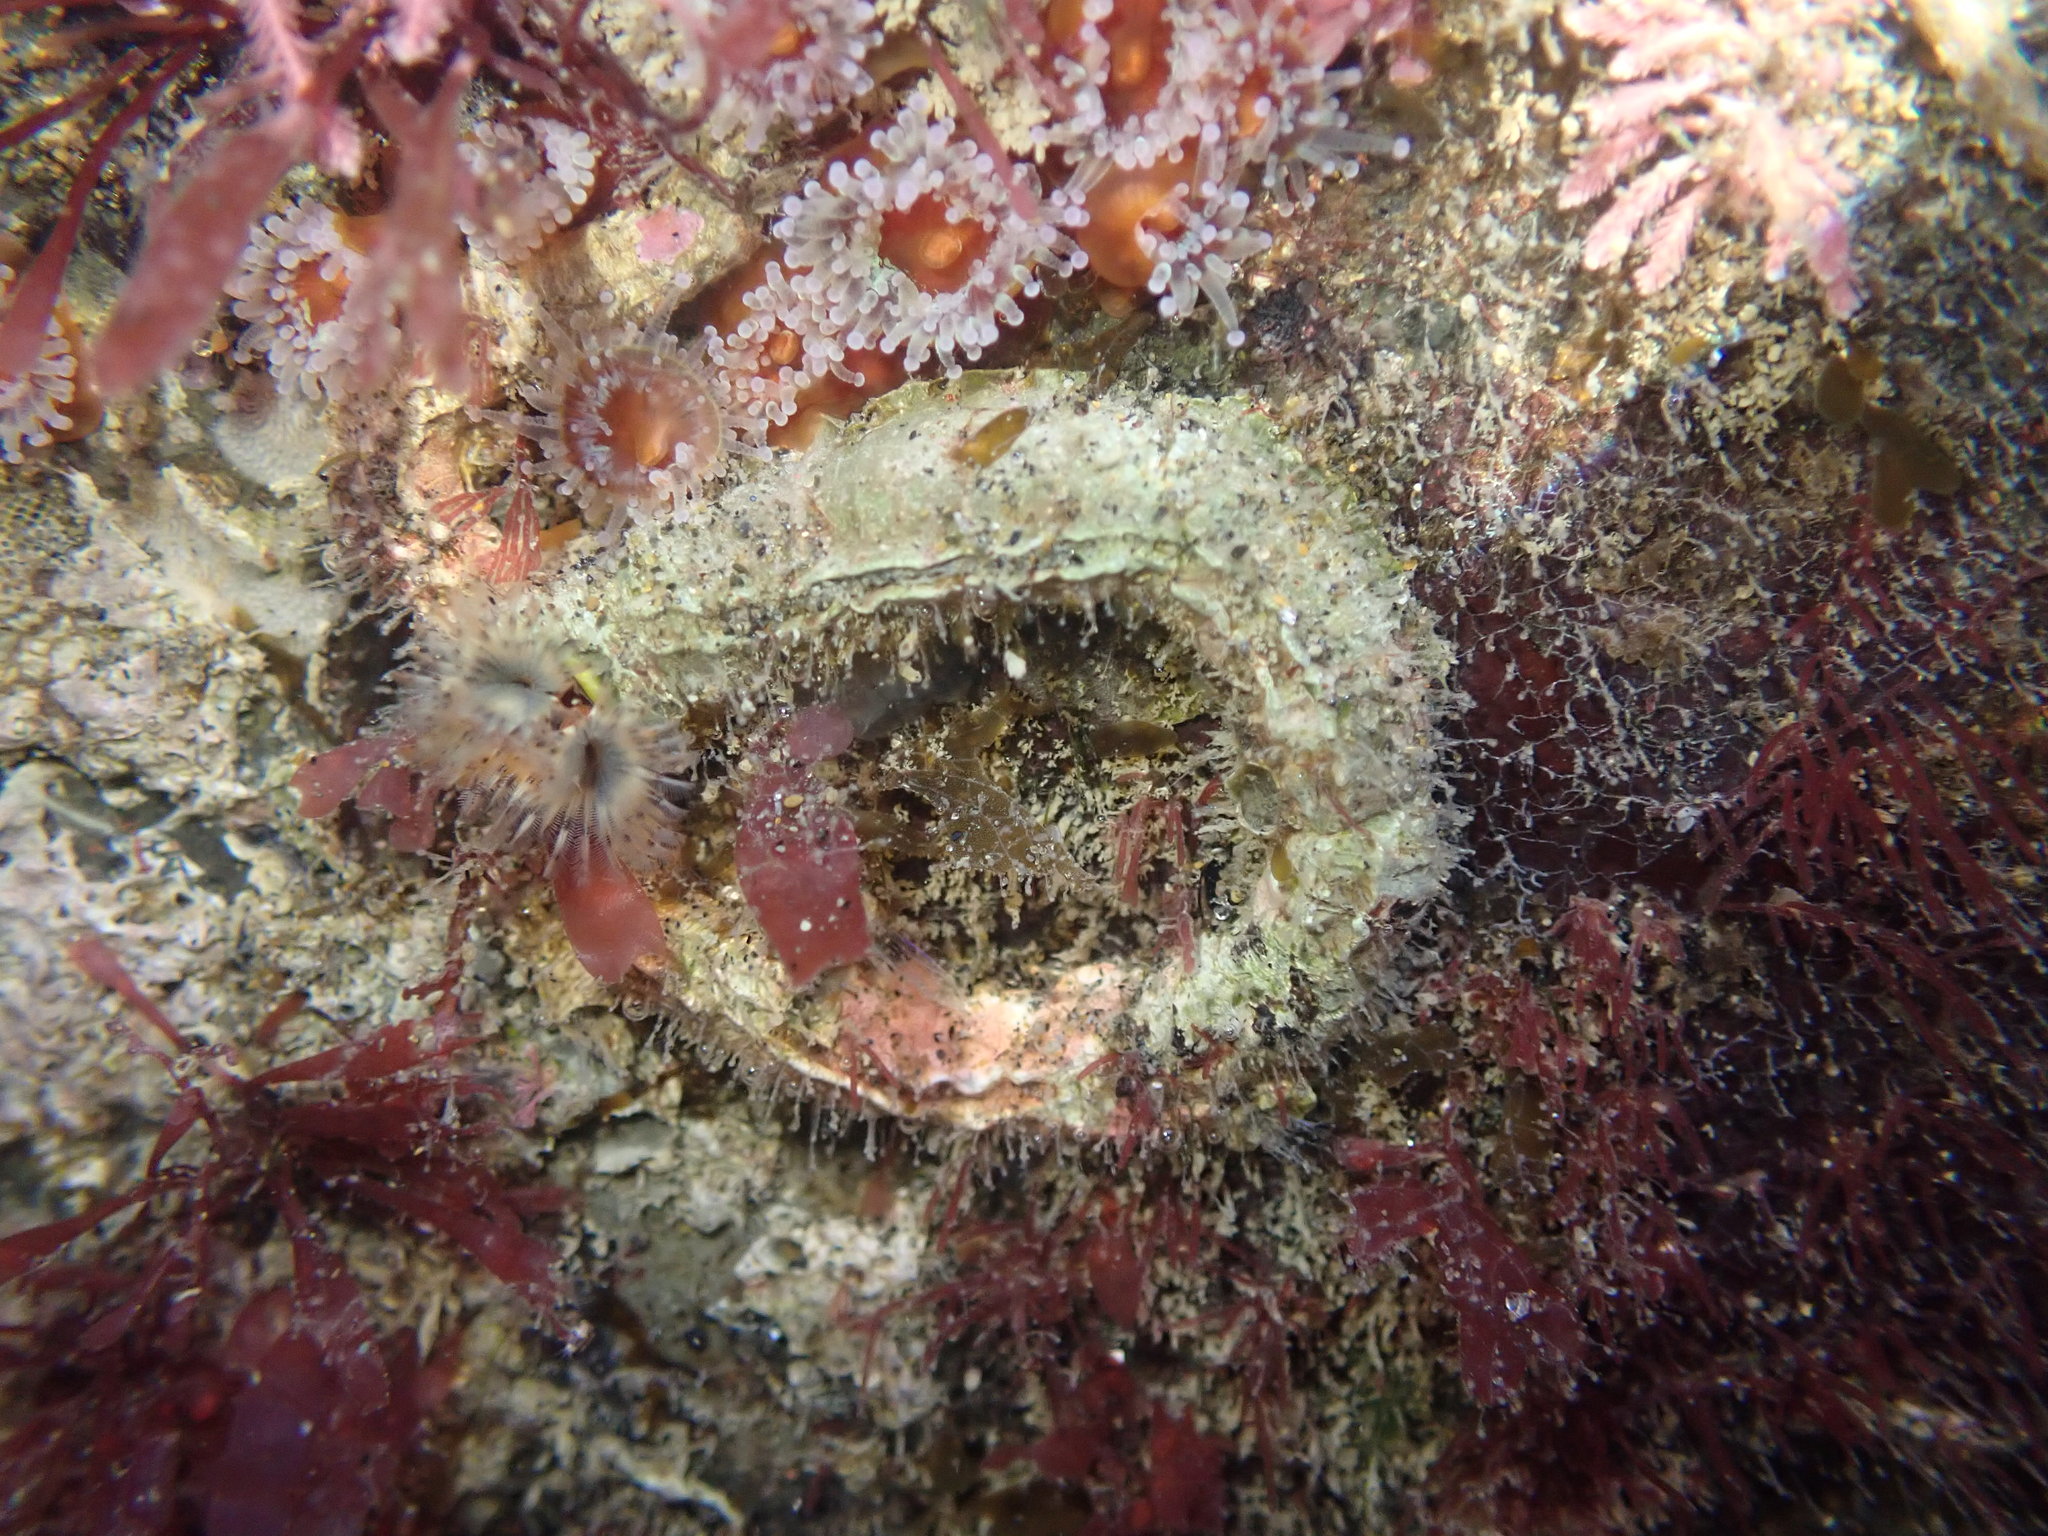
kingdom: Animalia
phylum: Annelida
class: Polychaeta
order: Sabellida
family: Serpulidae
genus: Galeolaria
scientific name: Galeolaria hystrix
